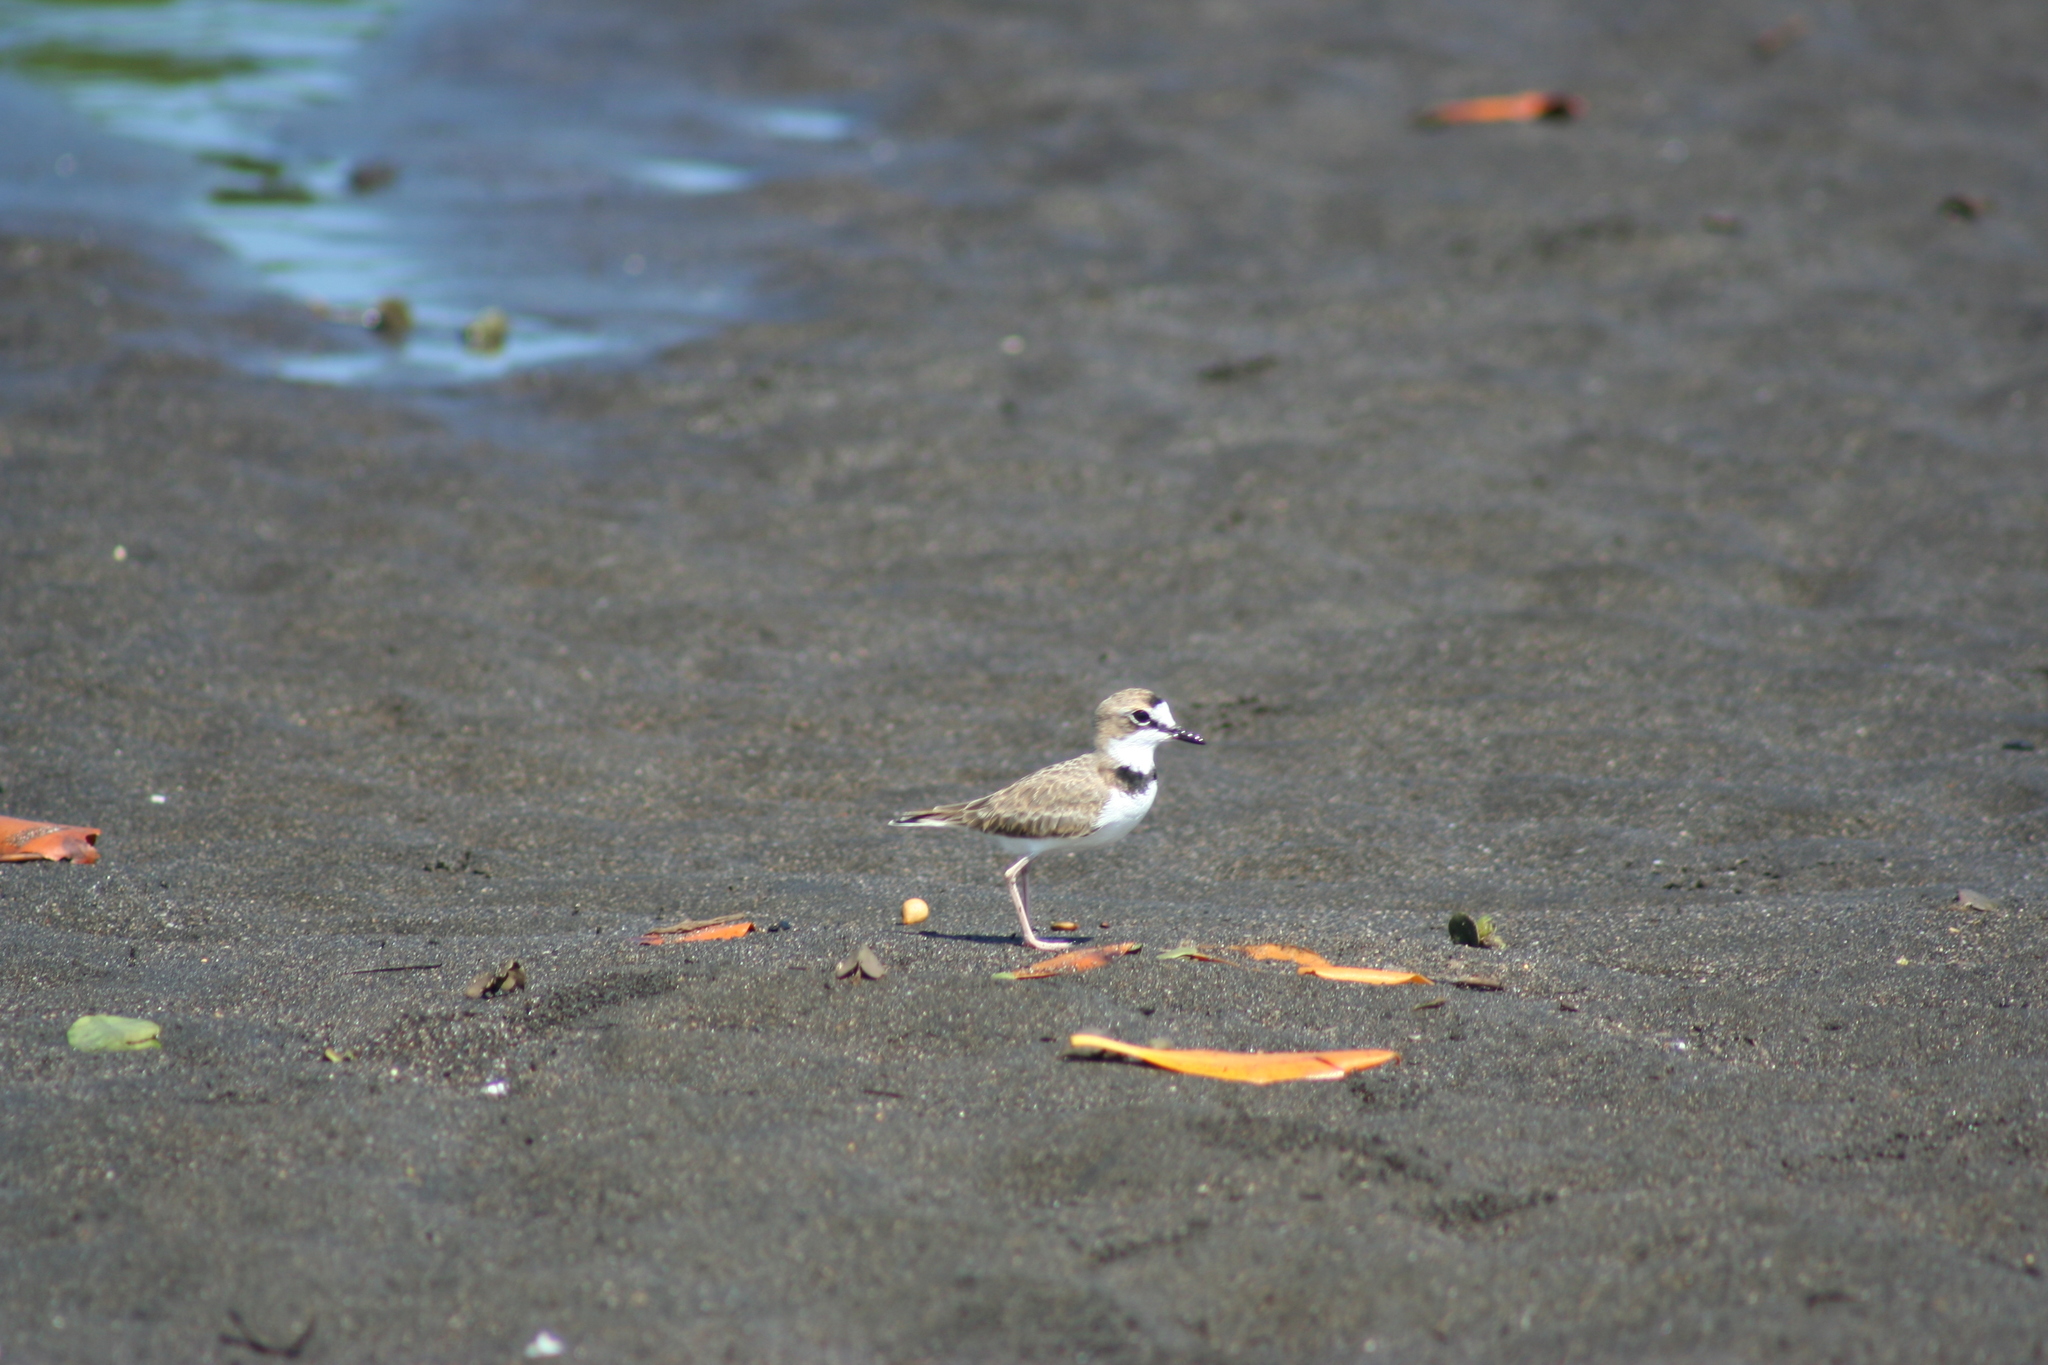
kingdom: Animalia
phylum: Chordata
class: Aves
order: Charadriiformes
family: Charadriidae
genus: Anarhynchus
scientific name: Anarhynchus
